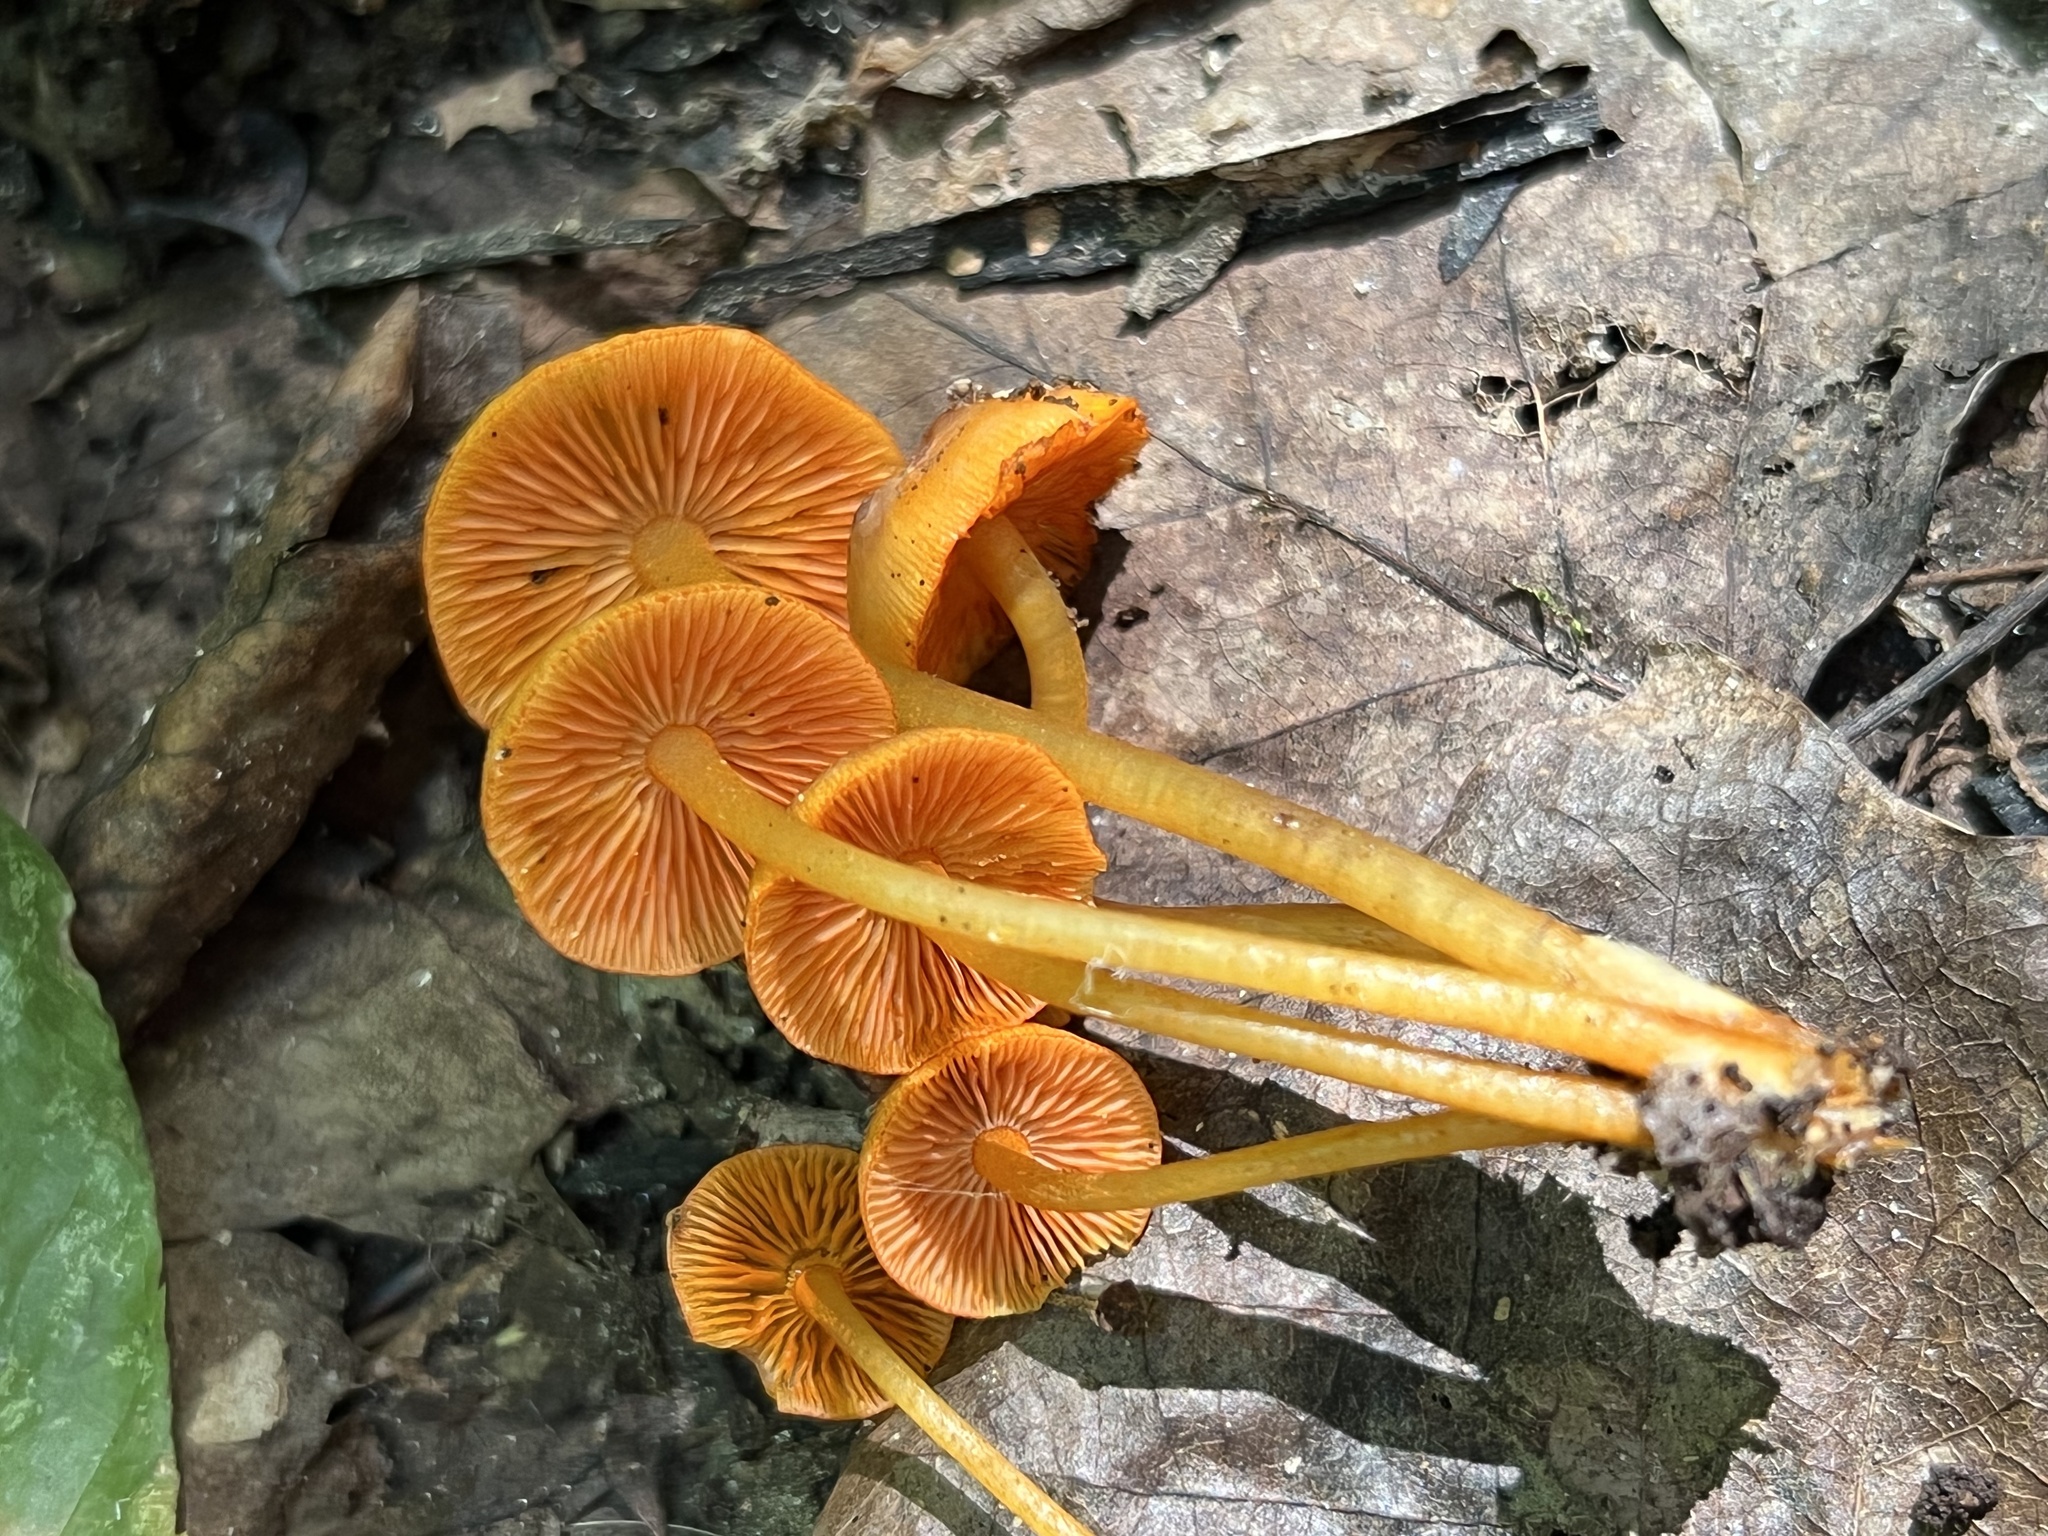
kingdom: Fungi
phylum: Basidiomycota
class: Agaricomycetes
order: Agaricales
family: Mycenaceae
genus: Mycena
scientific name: Mycena leaiana
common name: Orange mycena
